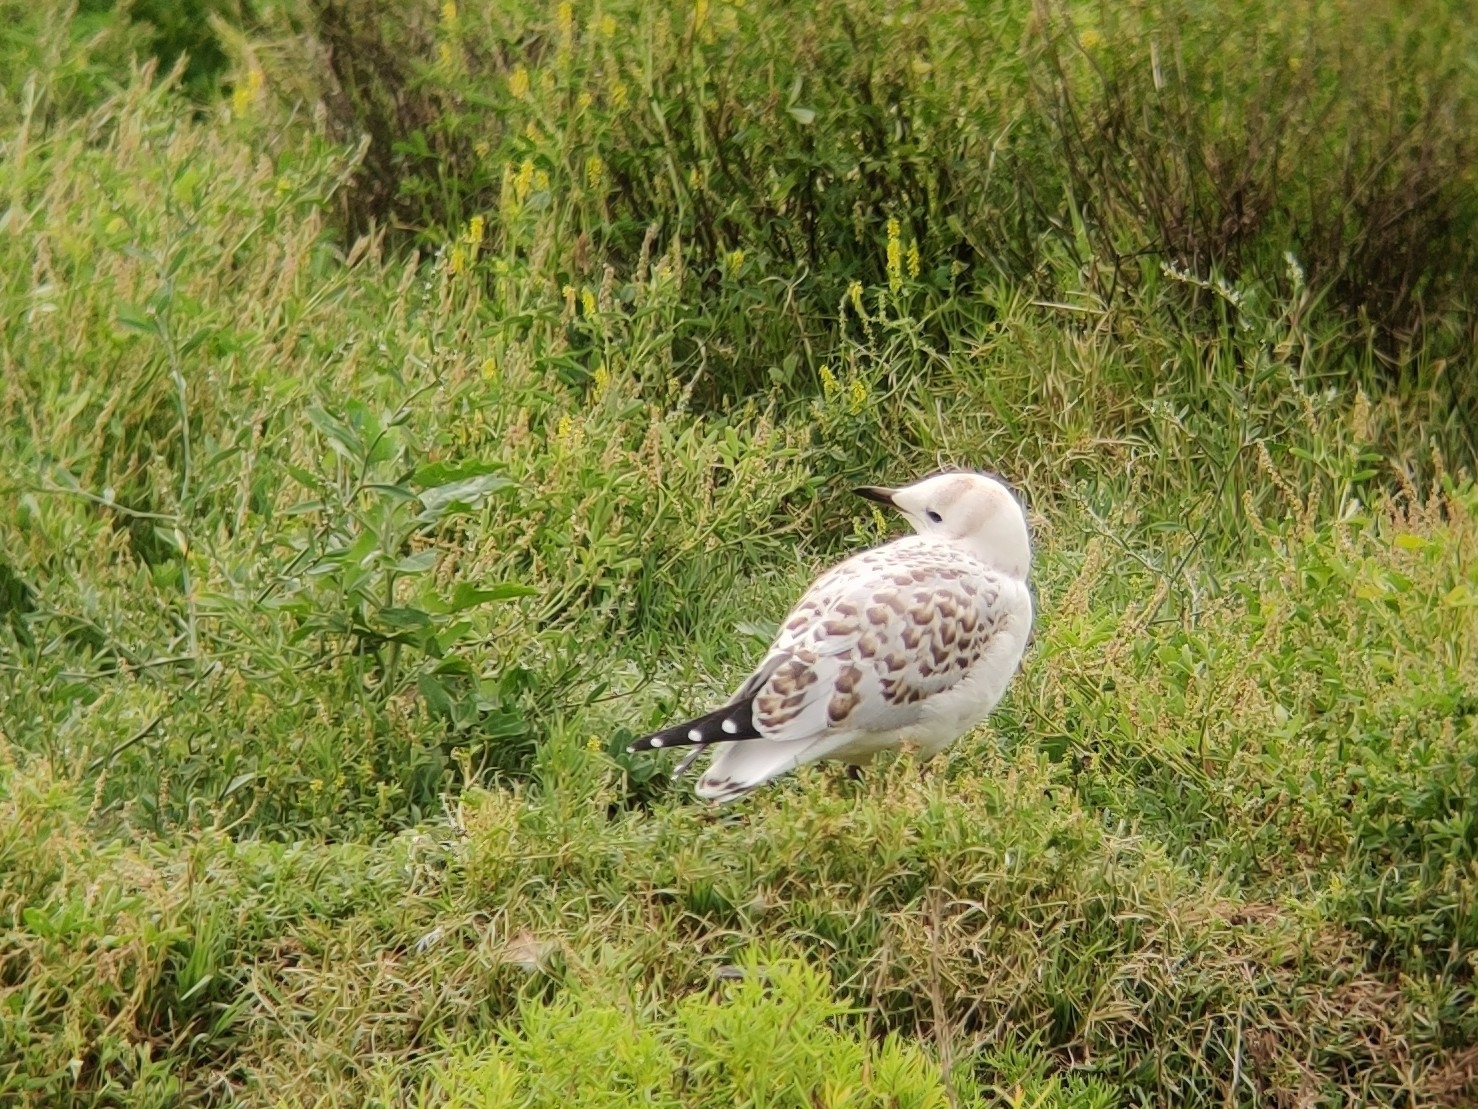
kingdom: Animalia
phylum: Chordata
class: Aves
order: Charadriiformes
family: Laridae
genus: Chroicocephalus
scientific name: Chroicocephalus novaehollandiae
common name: Silver gull
